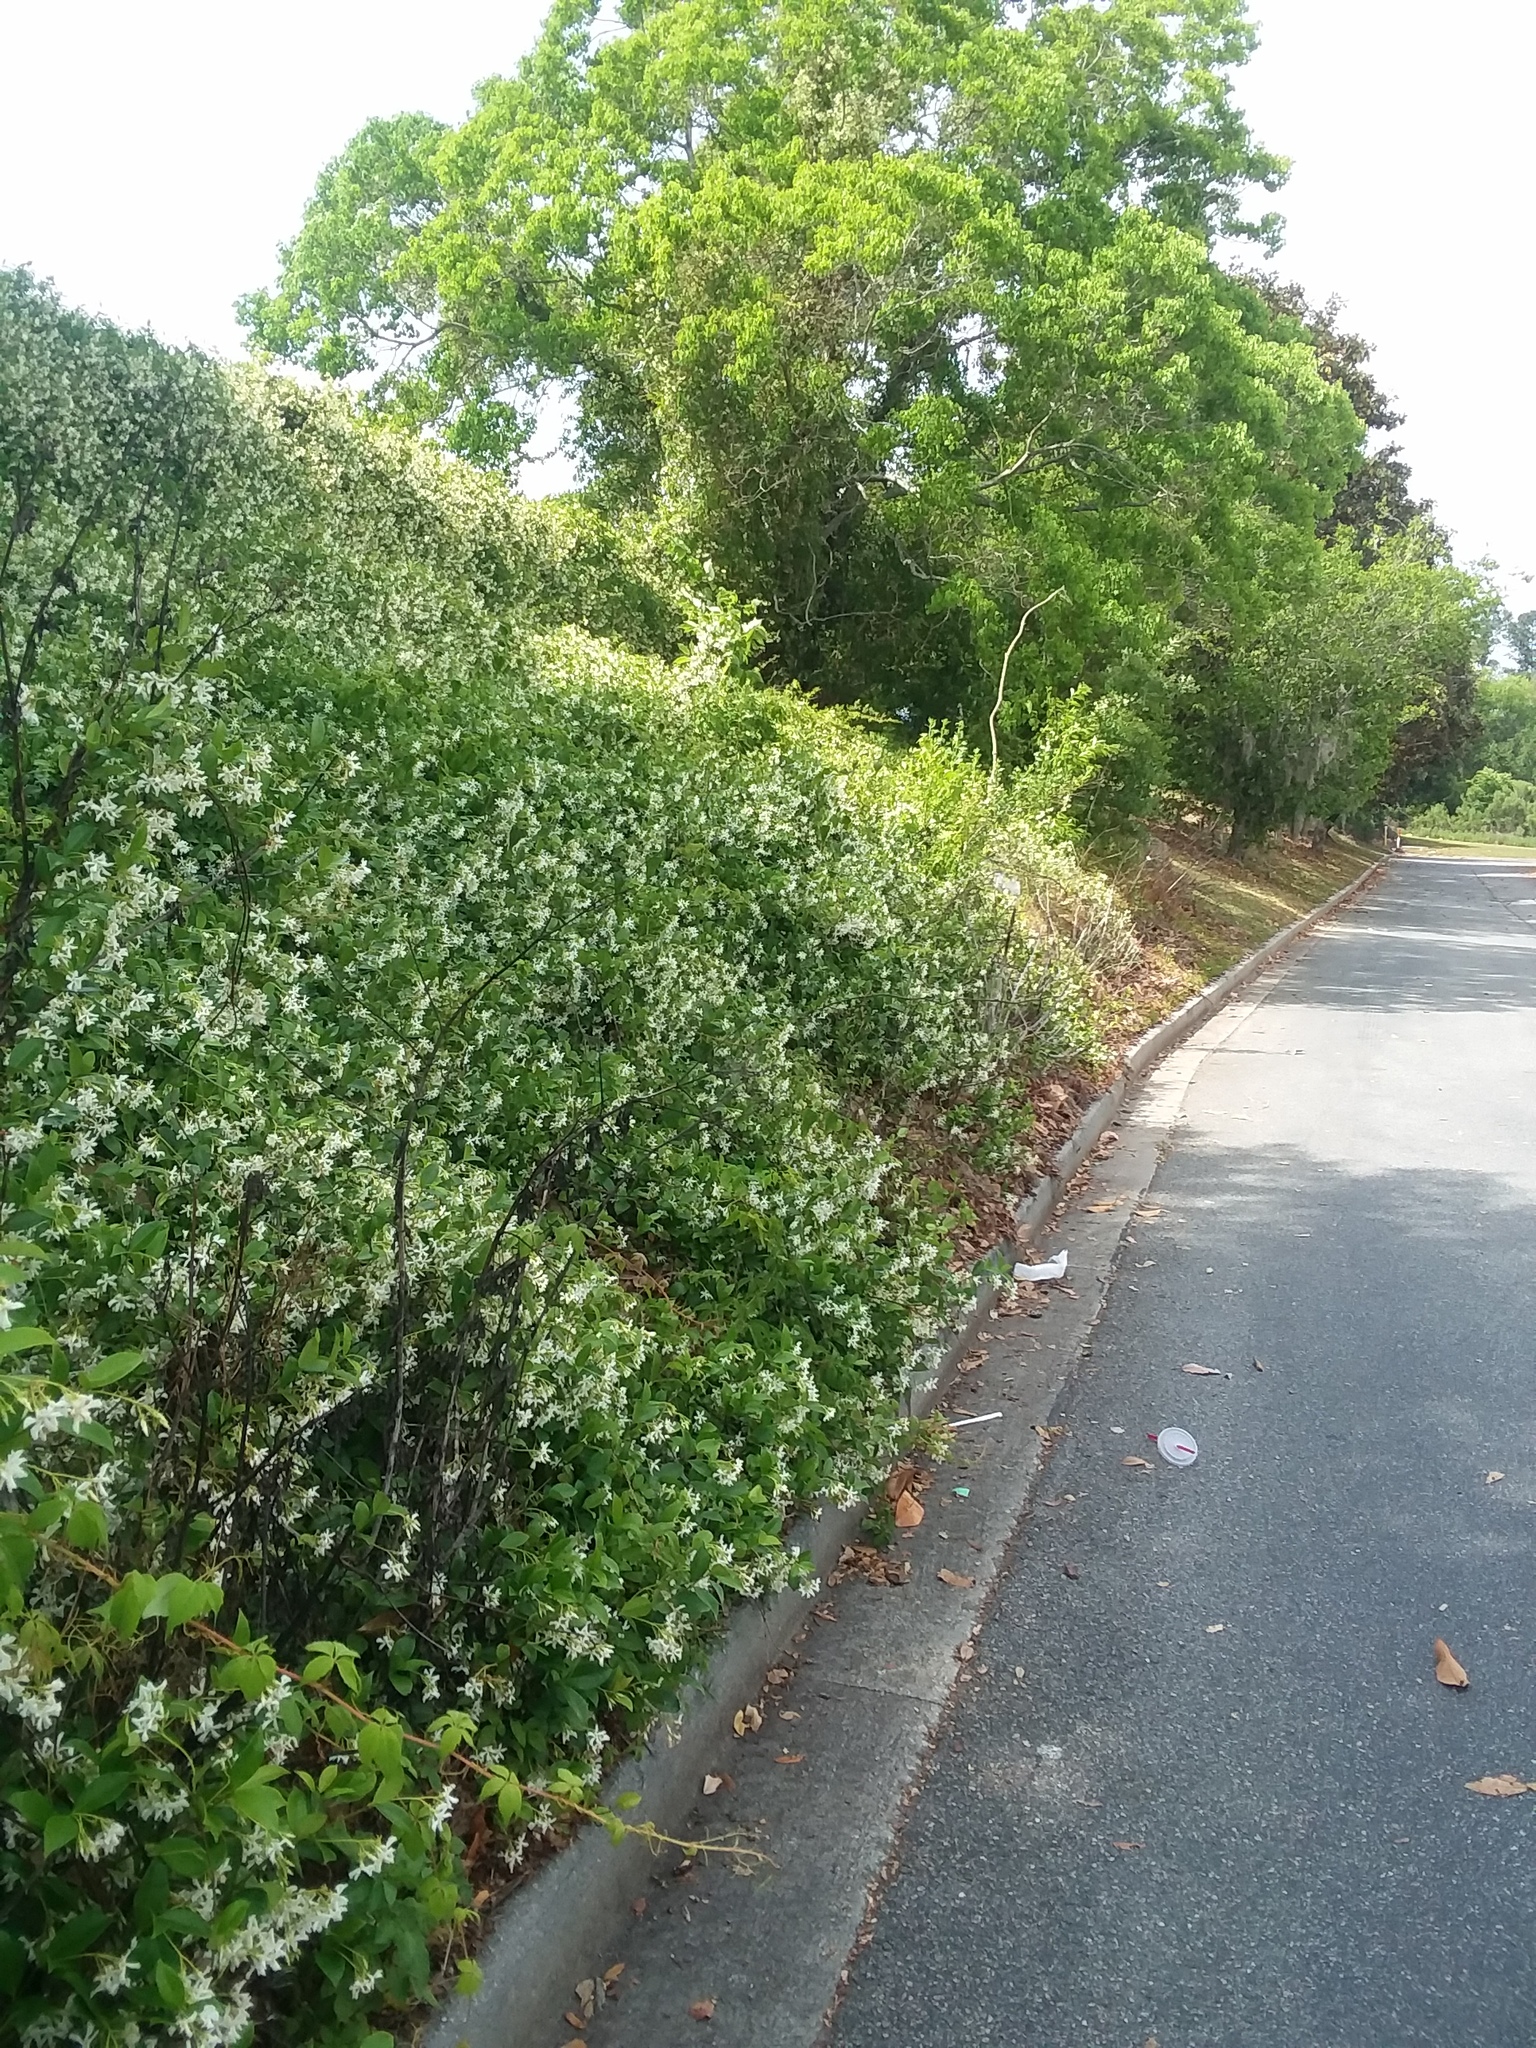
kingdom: Plantae
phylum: Tracheophyta
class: Magnoliopsida
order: Gentianales
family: Apocynaceae
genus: Trachelospermum
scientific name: Trachelospermum jasminoides
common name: Confederate jasmine
